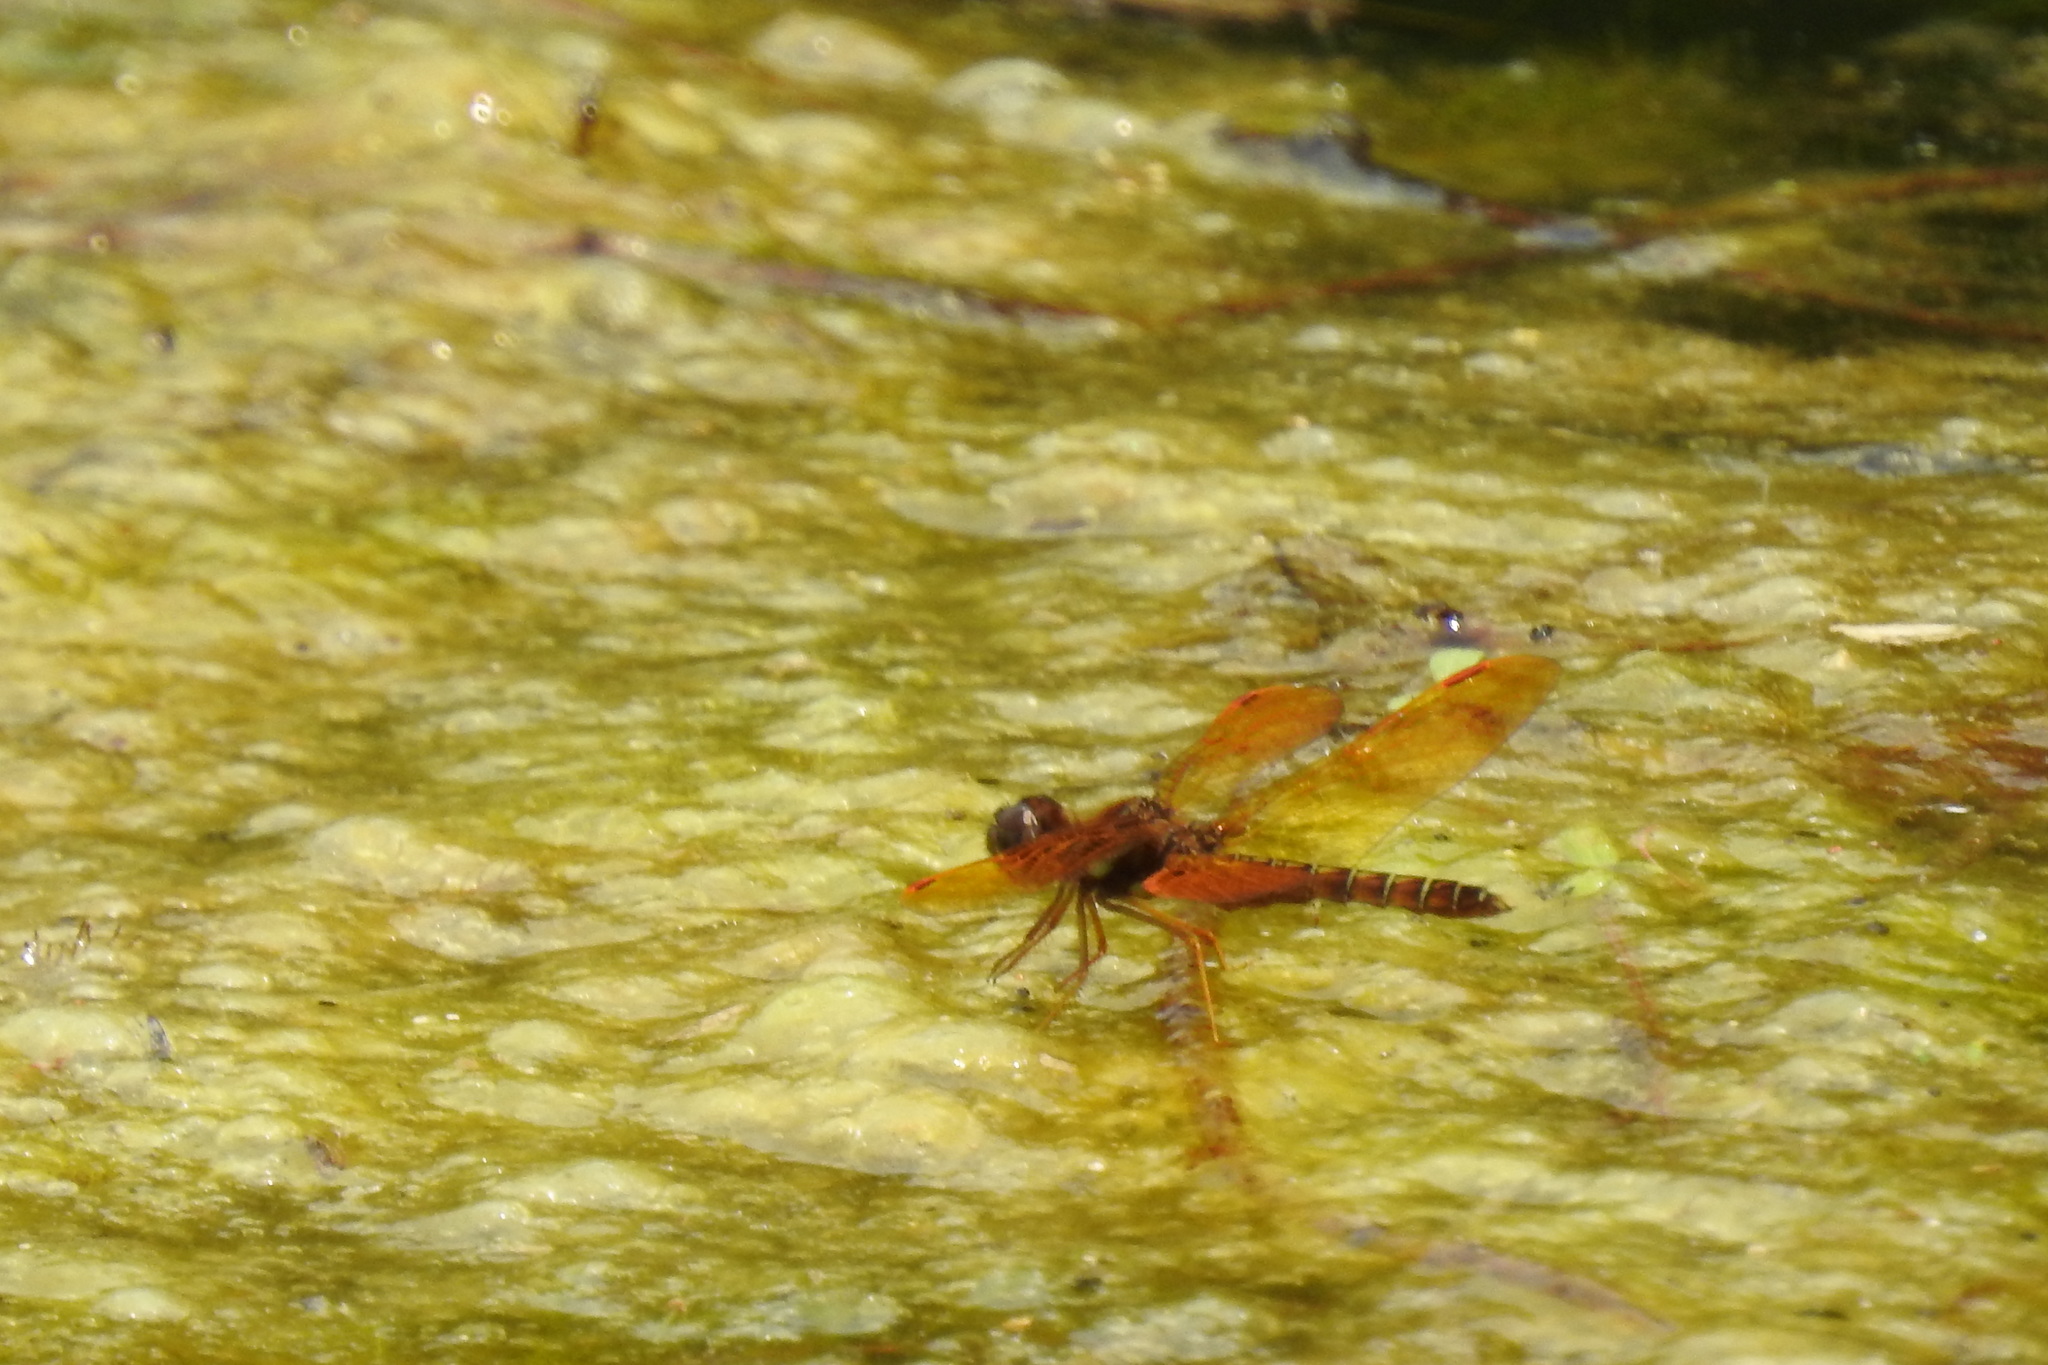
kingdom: Animalia
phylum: Arthropoda
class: Insecta
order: Odonata
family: Libellulidae
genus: Perithemis
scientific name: Perithemis tenera
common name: Eastern amberwing
